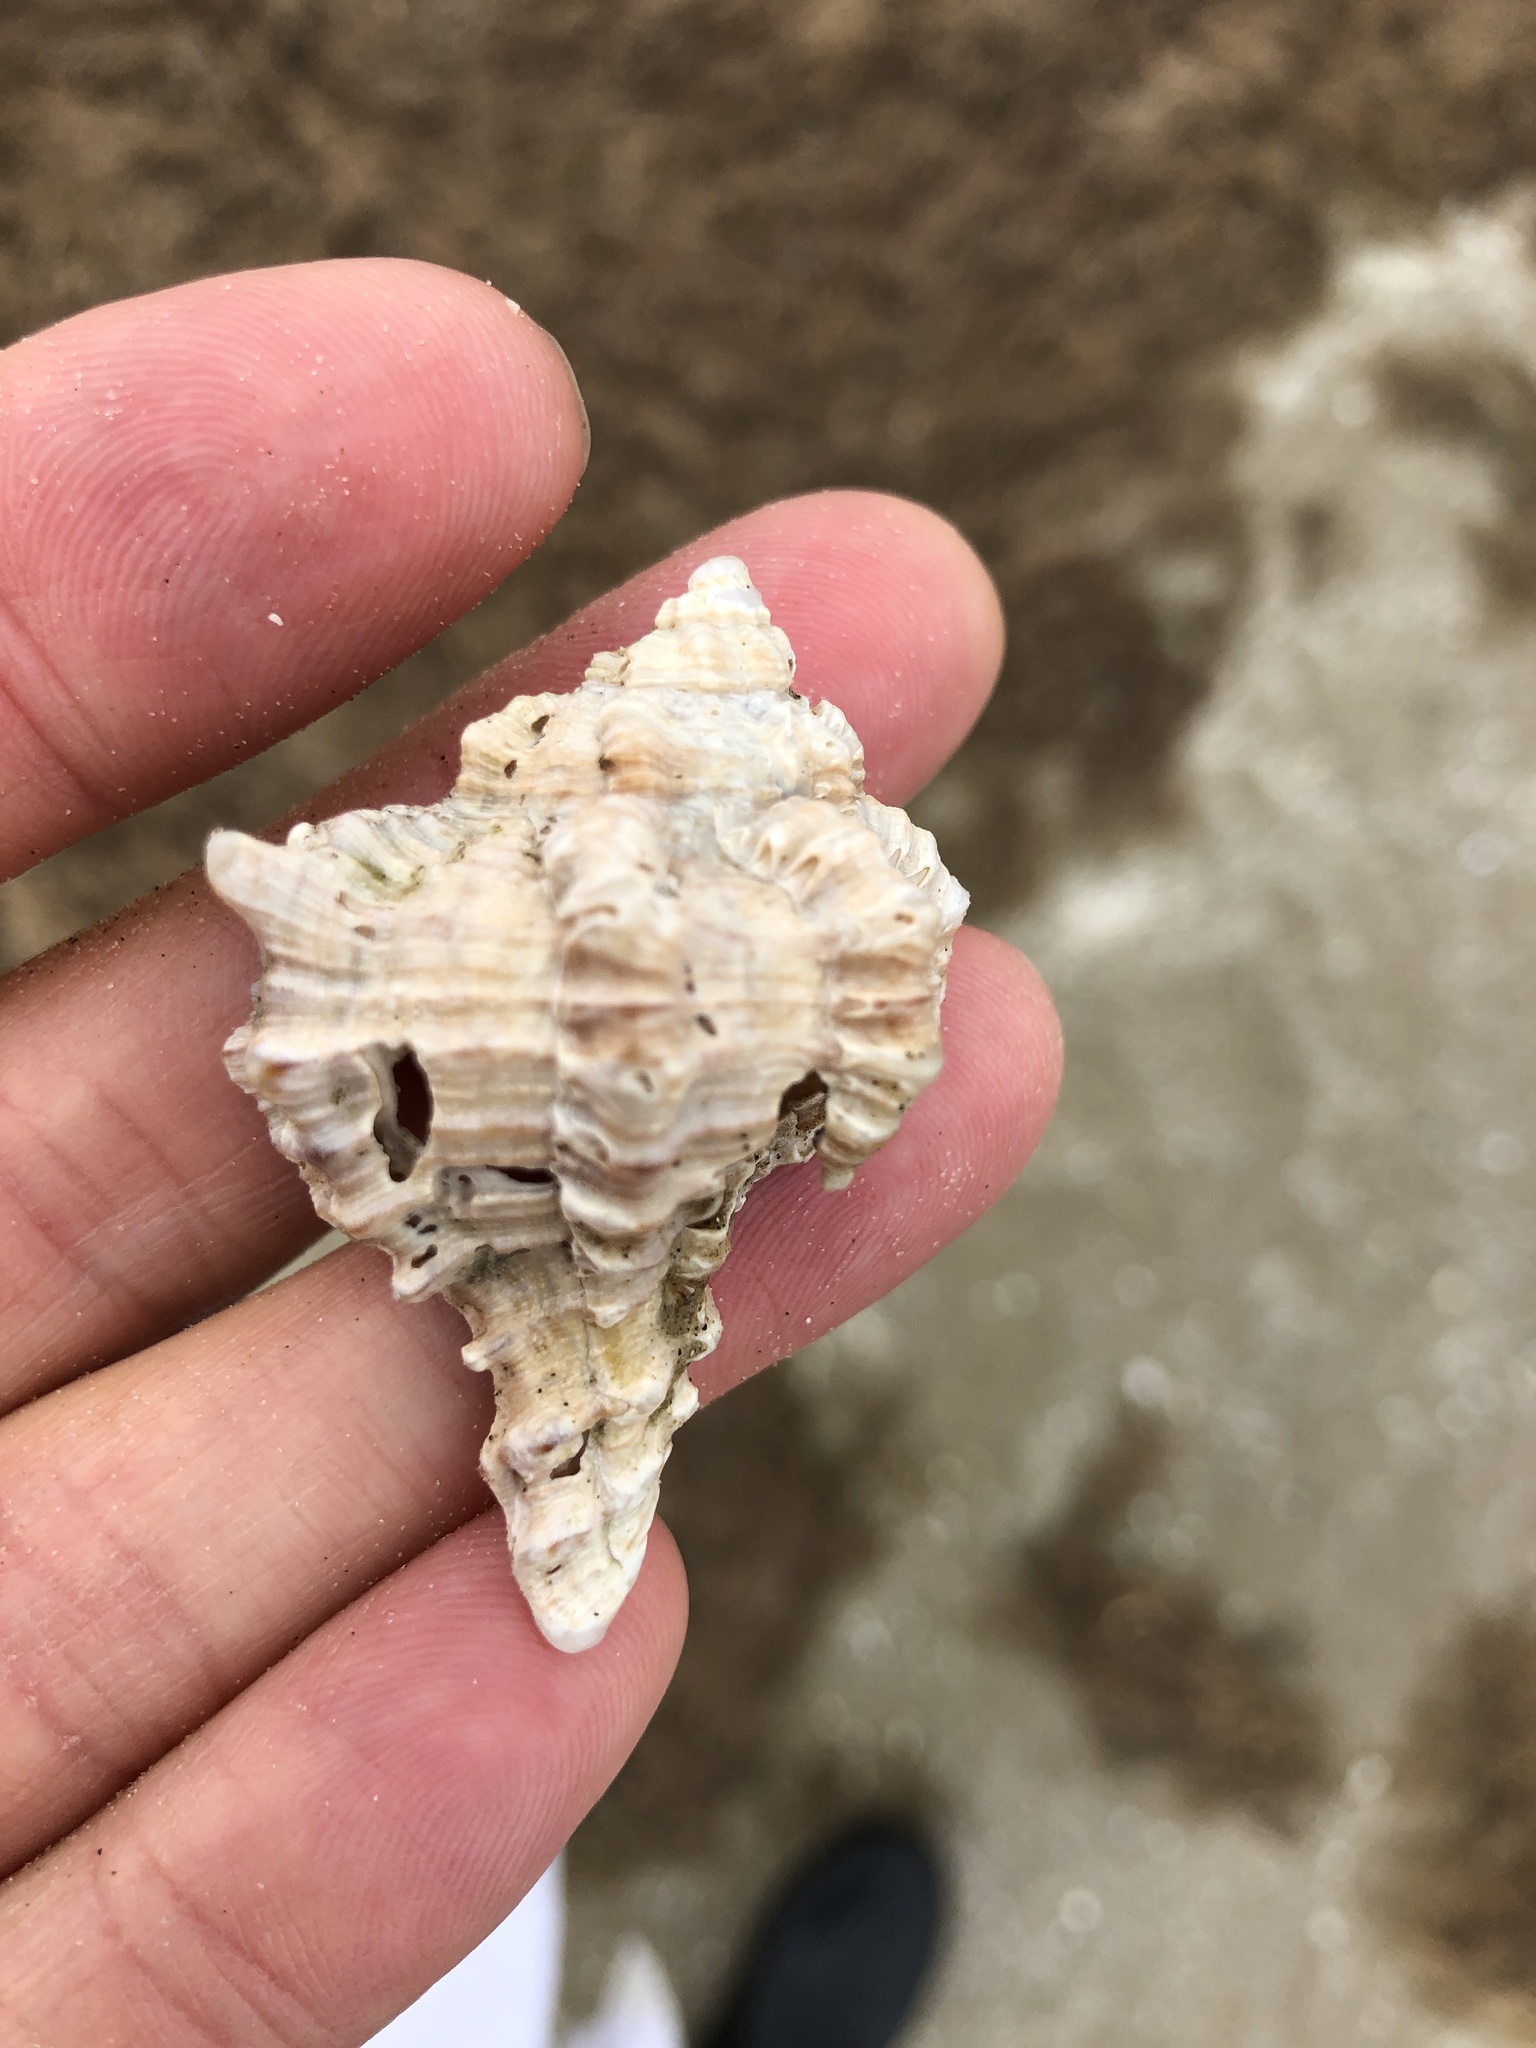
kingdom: Animalia
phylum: Mollusca
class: Gastropoda
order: Neogastropoda
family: Muricidae
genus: Hexaplex
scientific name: Hexaplex fulvescens
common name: Tawny murex
